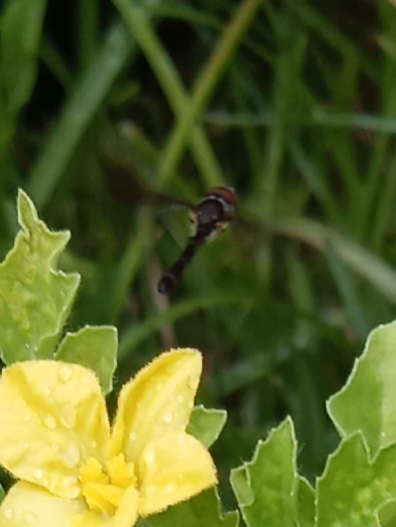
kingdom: Animalia
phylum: Arthropoda
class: Insecta
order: Diptera
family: Syrphidae
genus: Ocyptamus
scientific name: Ocyptamus fuscipennis
